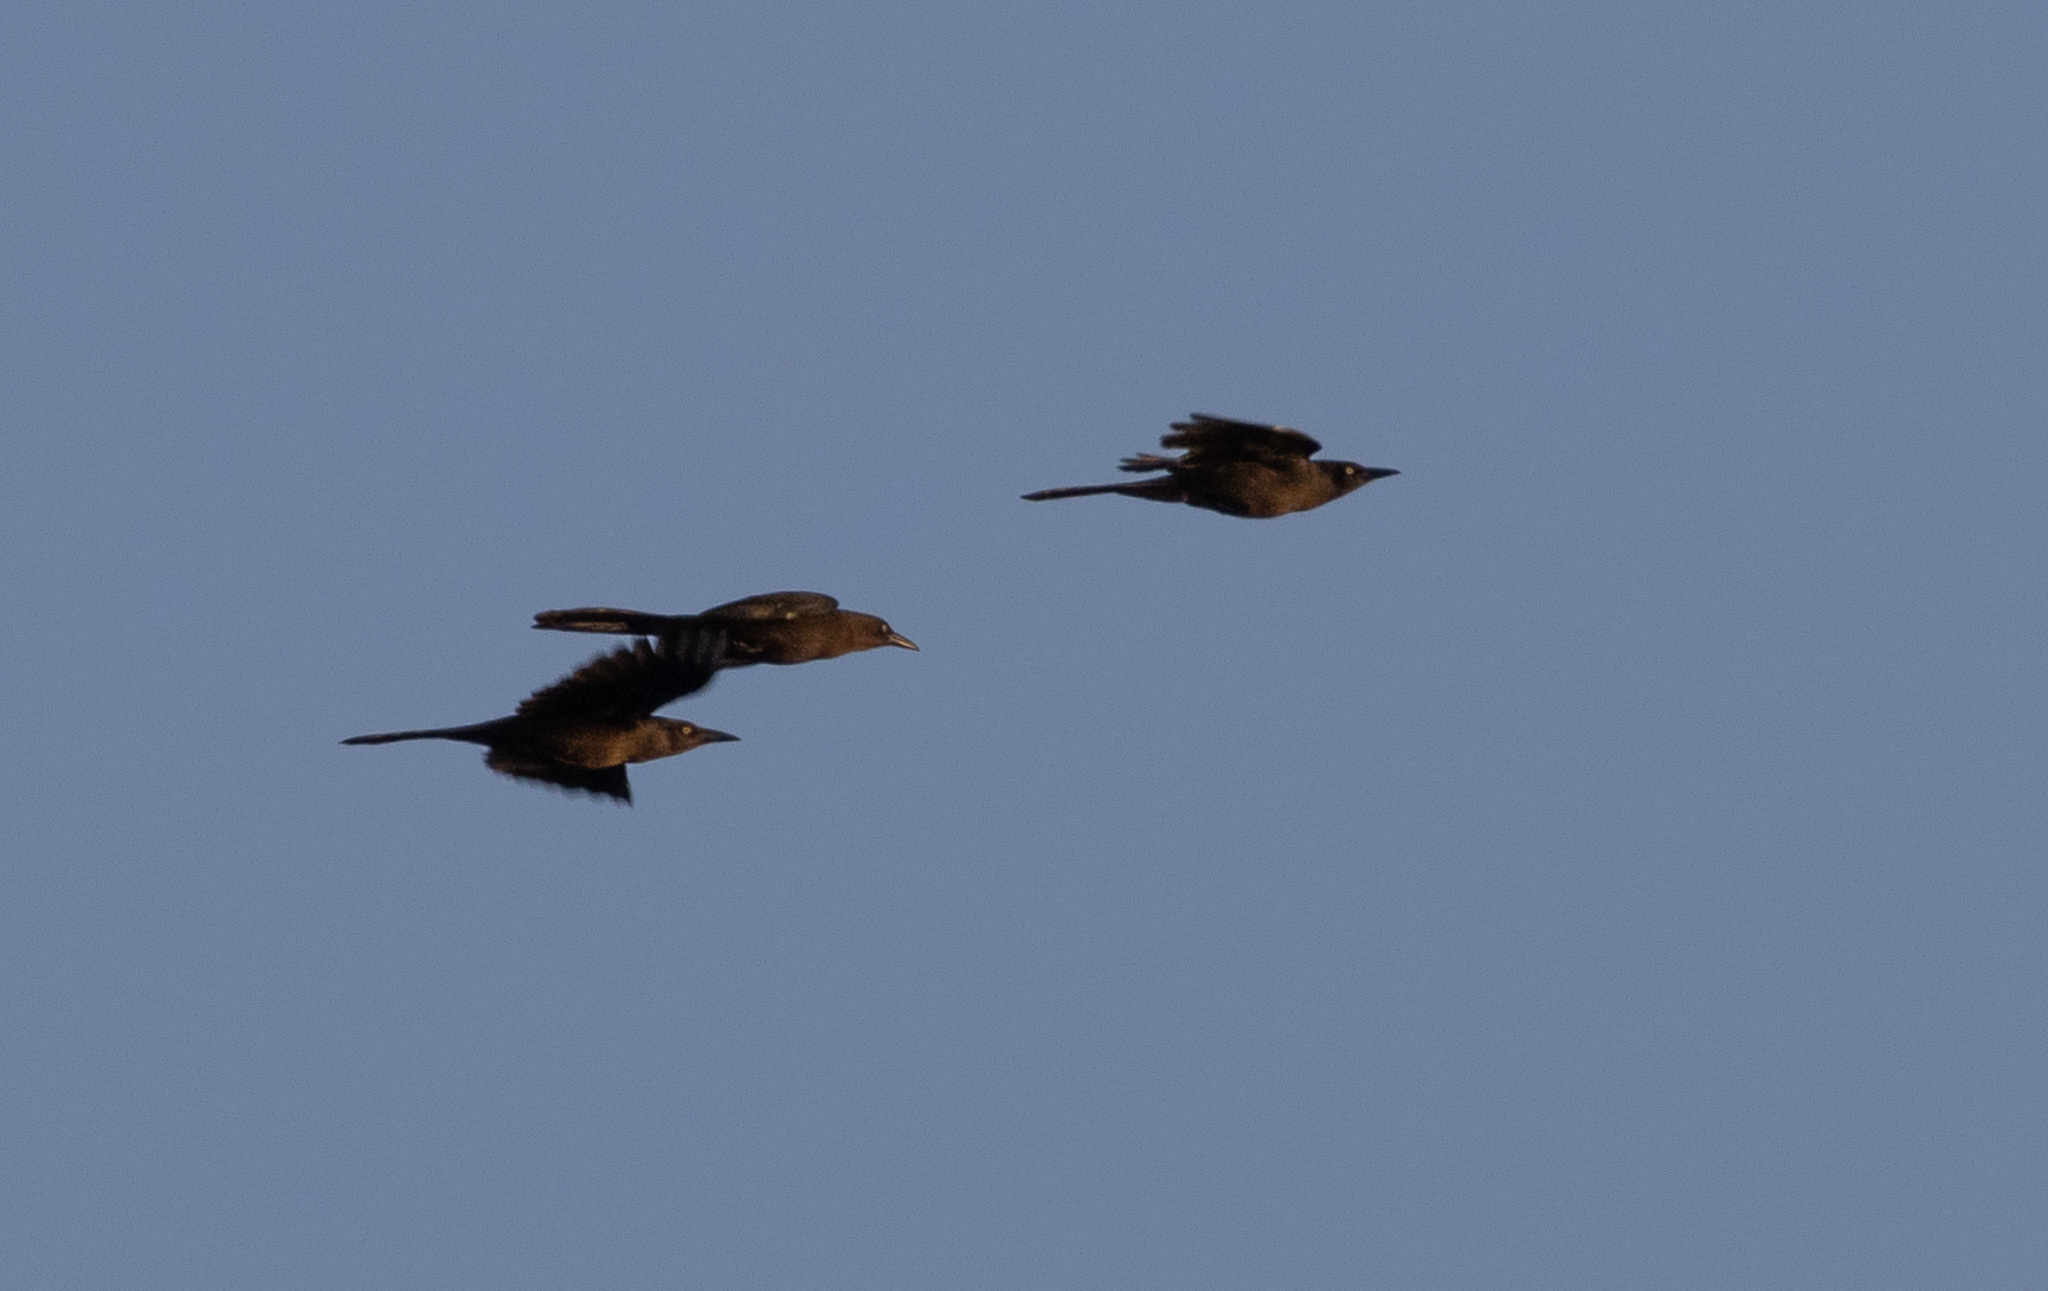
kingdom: Animalia
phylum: Chordata
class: Aves
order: Passeriformes
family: Icteridae
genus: Quiscalus
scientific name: Quiscalus mexicanus
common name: Great-tailed grackle
